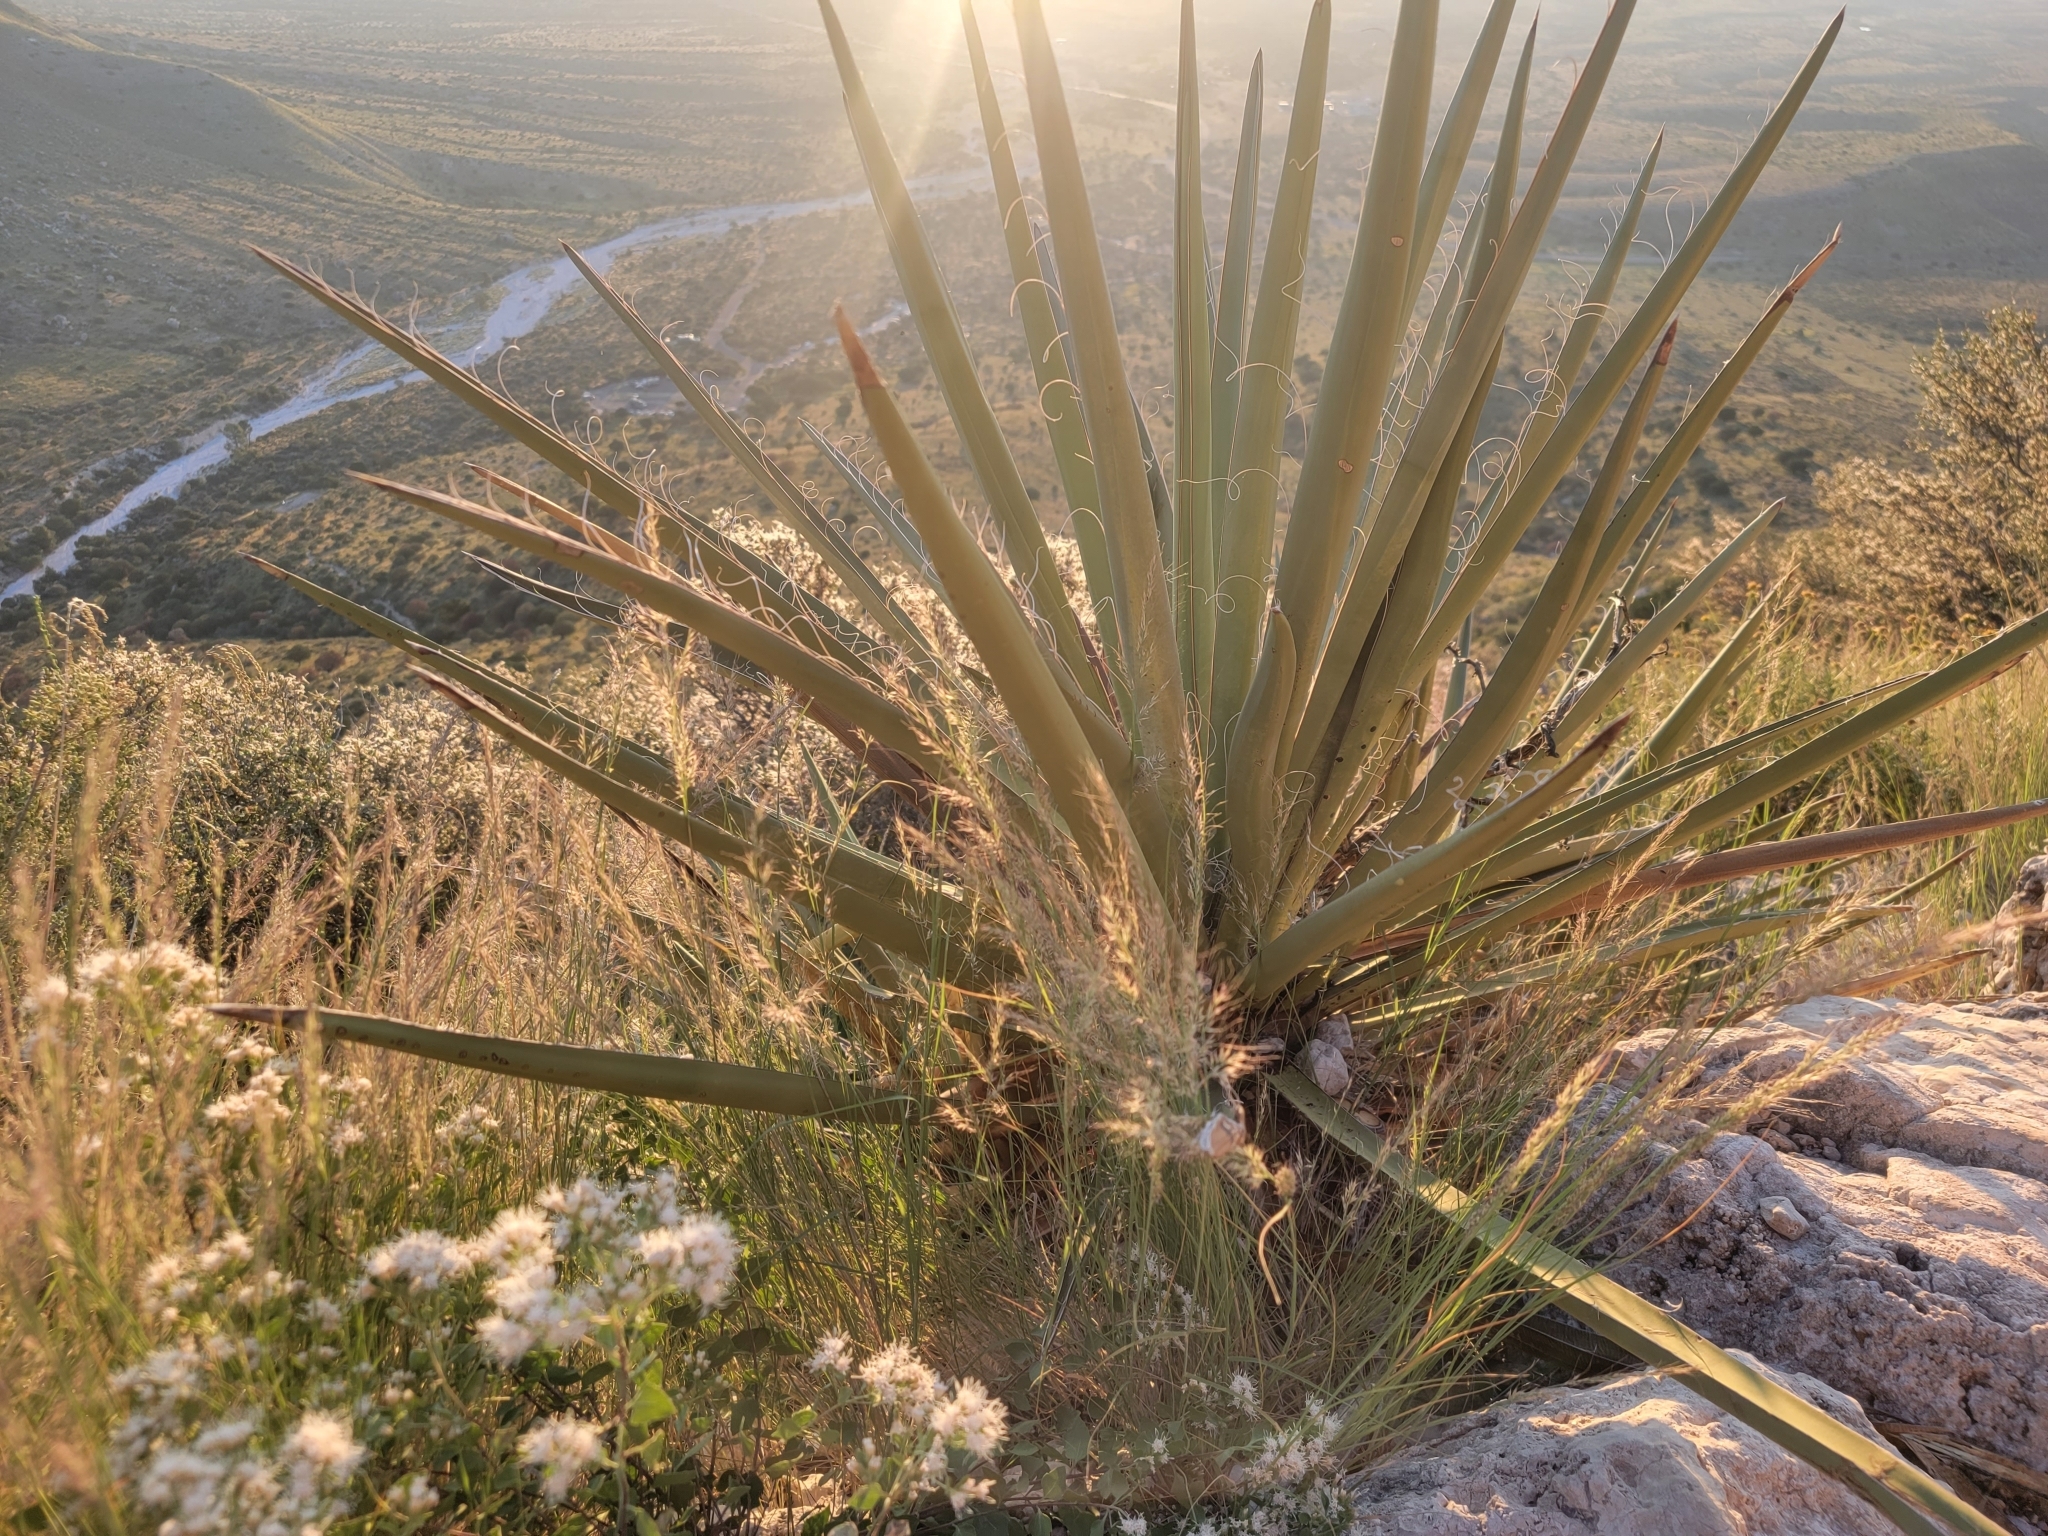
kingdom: Plantae
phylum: Tracheophyta
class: Liliopsida
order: Asparagales
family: Asparagaceae
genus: Yucca
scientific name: Yucca baccata
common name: Banana yucca
